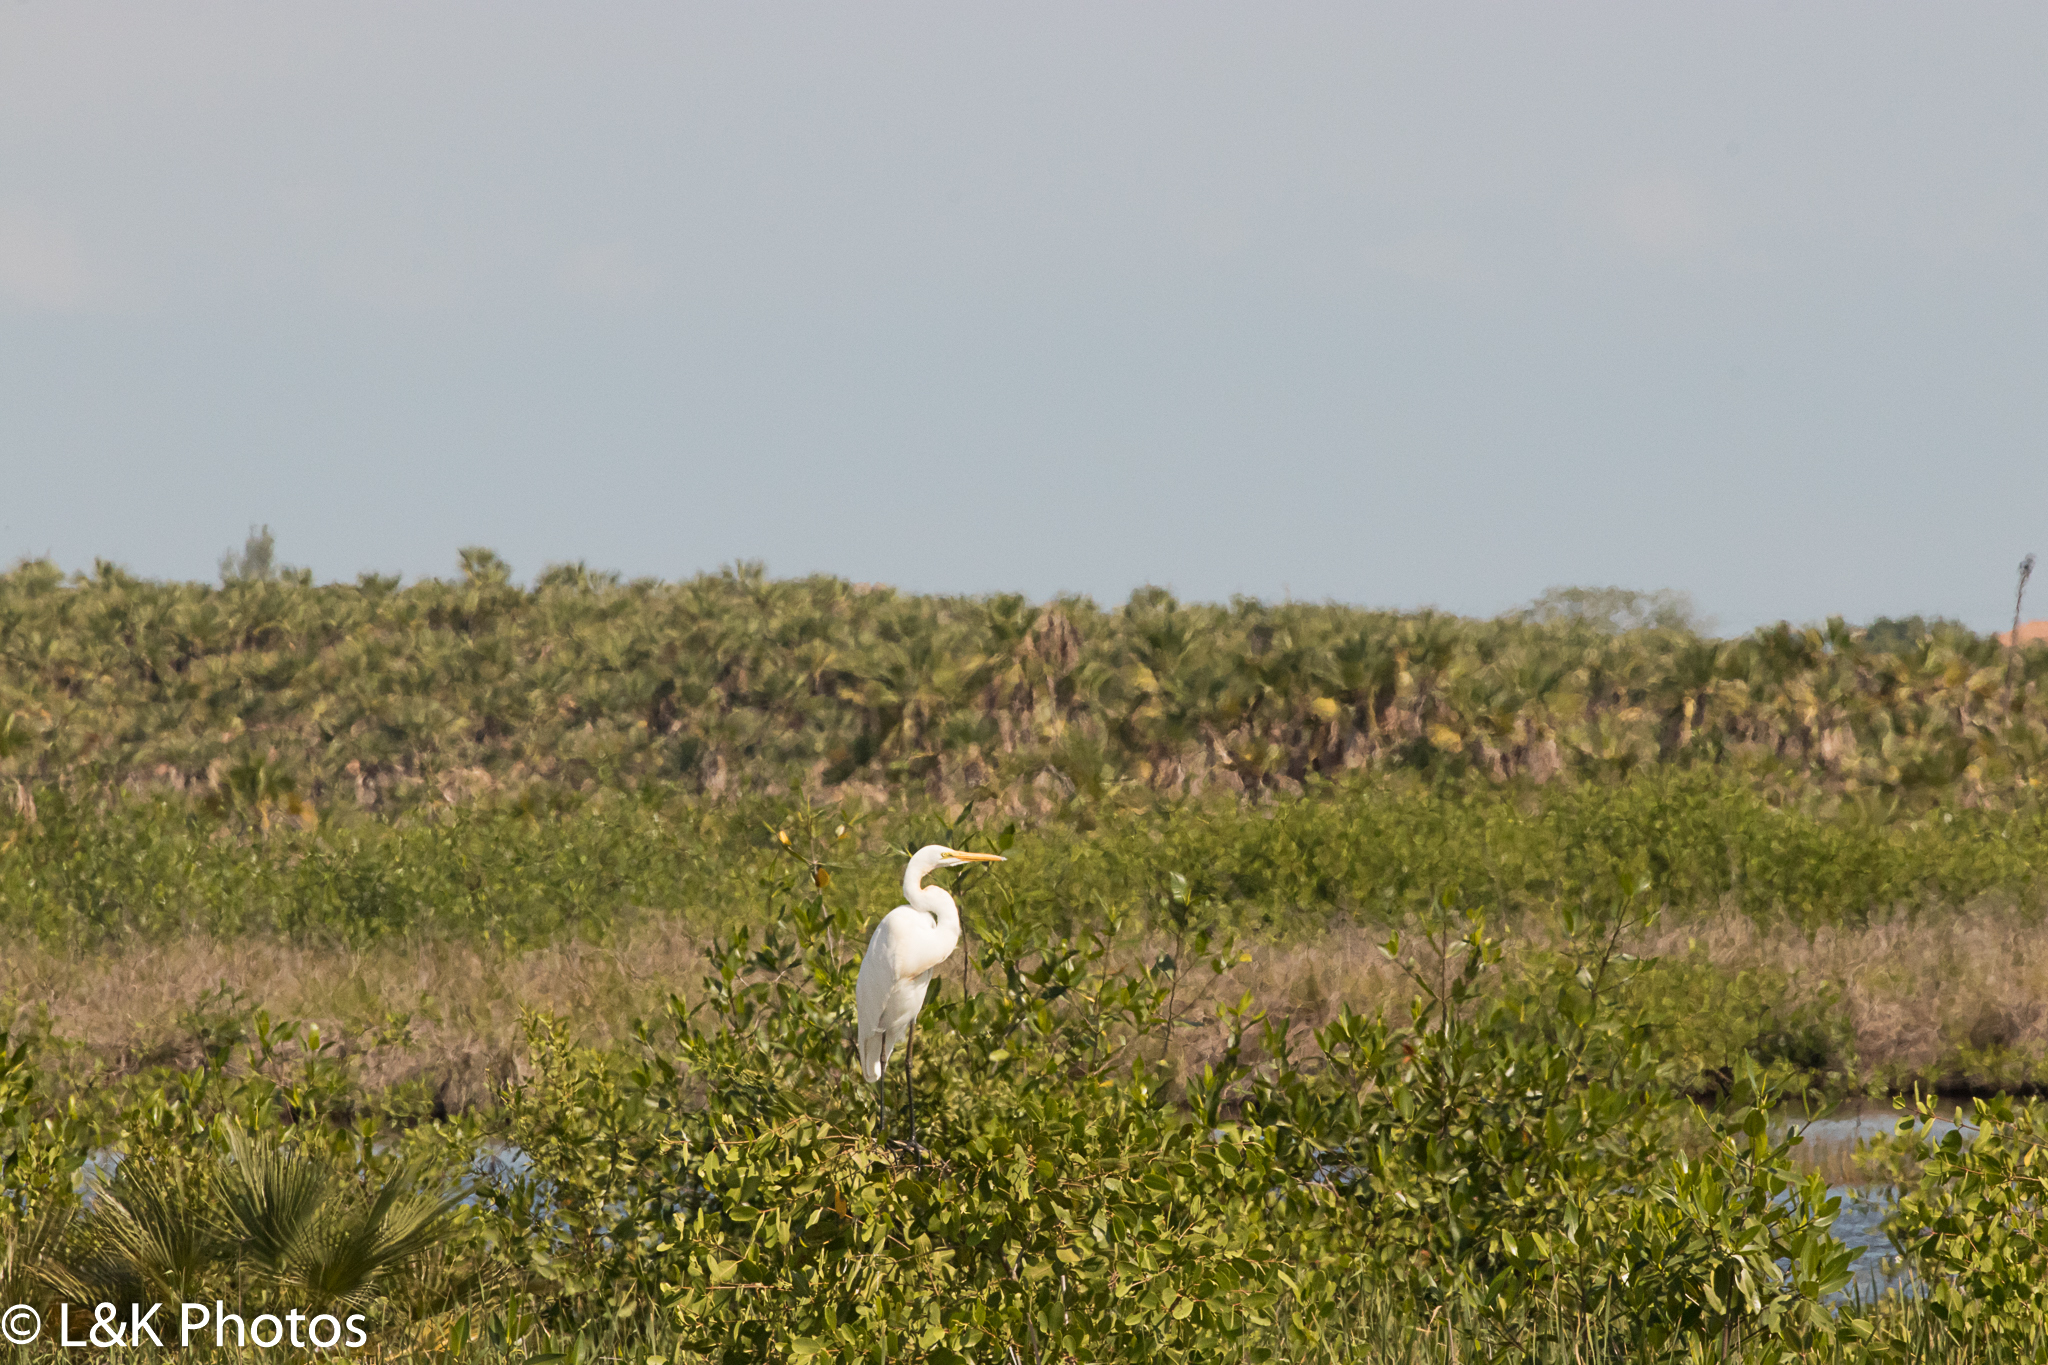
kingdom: Animalia
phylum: Chordata
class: Aves
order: Pelecaniformes
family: Ardeidae
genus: Ardea
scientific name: Ardea alba
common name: Great egret
